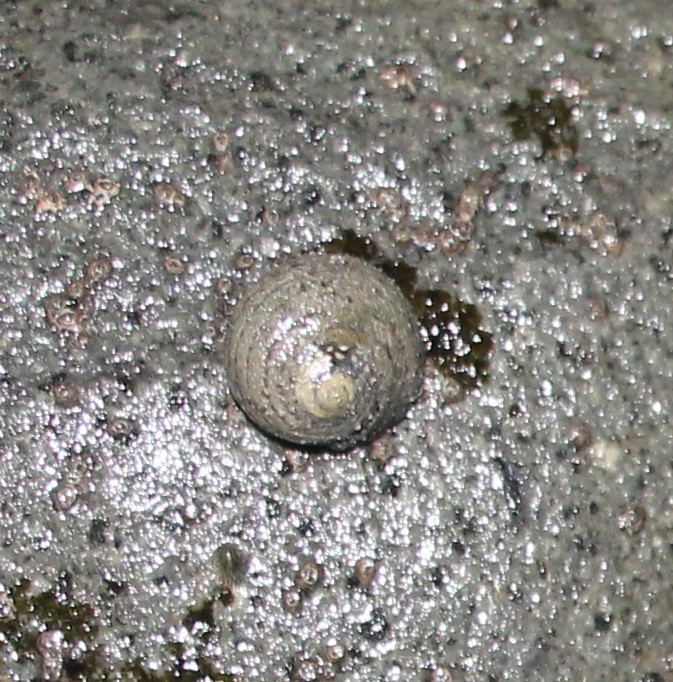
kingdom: Animalia
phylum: Mollusca
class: Gastropoda
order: Trochida
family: Trochidae
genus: Diloma
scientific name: Diloma aethiops
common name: Scorched monodont
